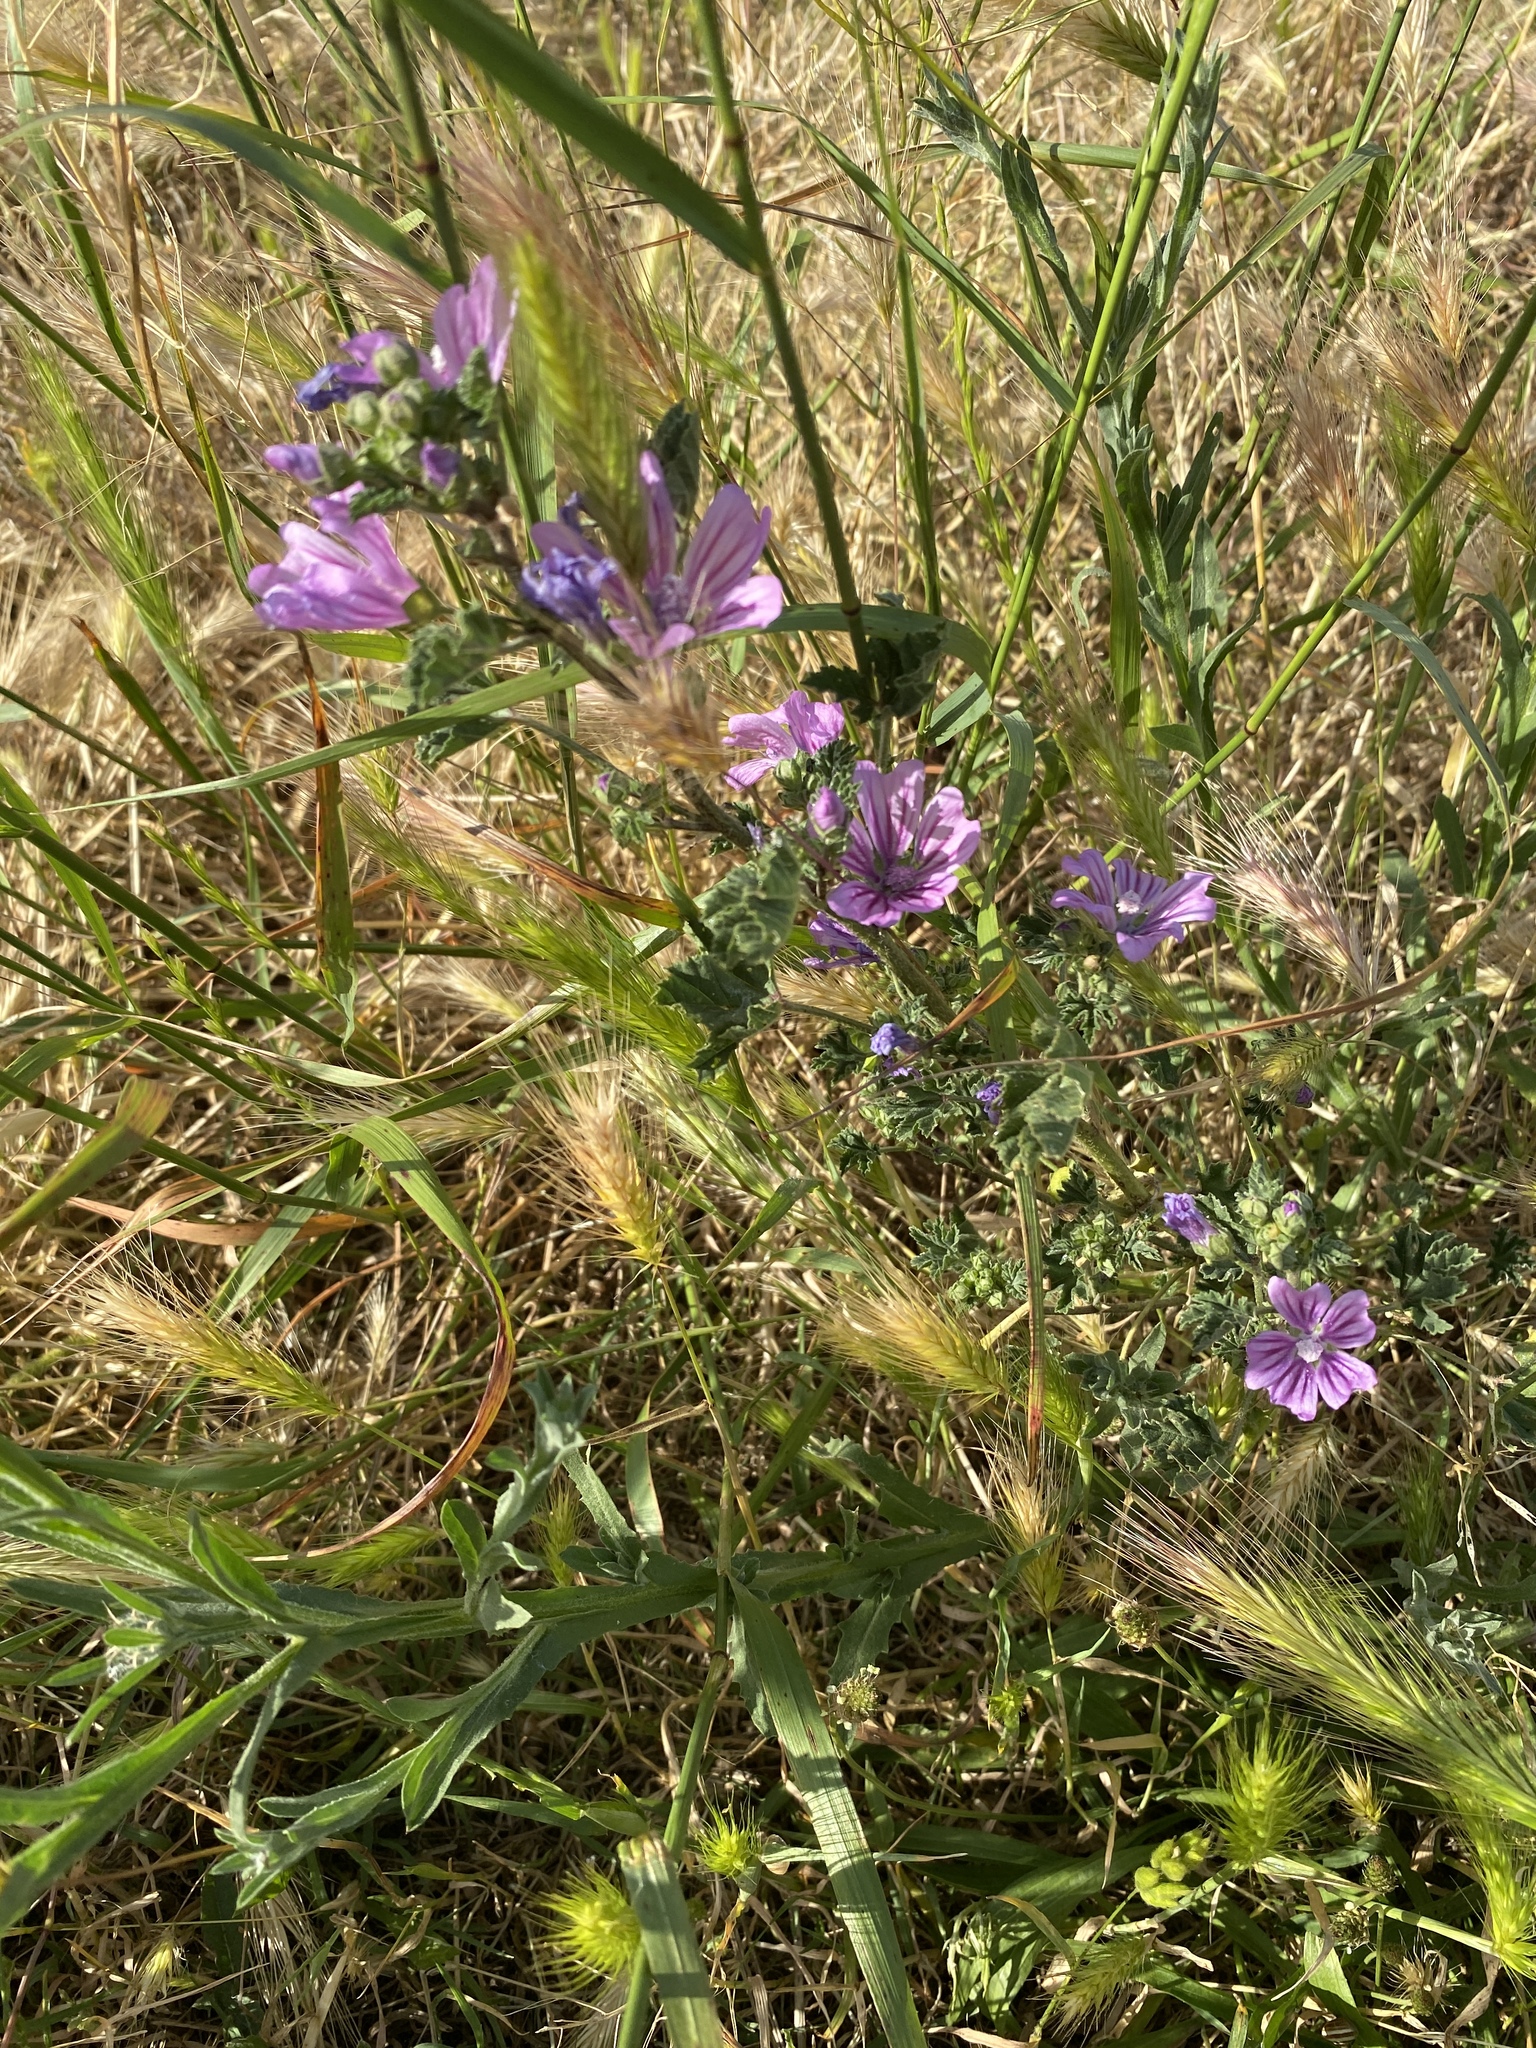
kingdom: Plantae
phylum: Tracheophyta
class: Magnoliopsida
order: Malvales
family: Malvaceae
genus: Malva
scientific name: Malva sylvestris
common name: Common mallow
